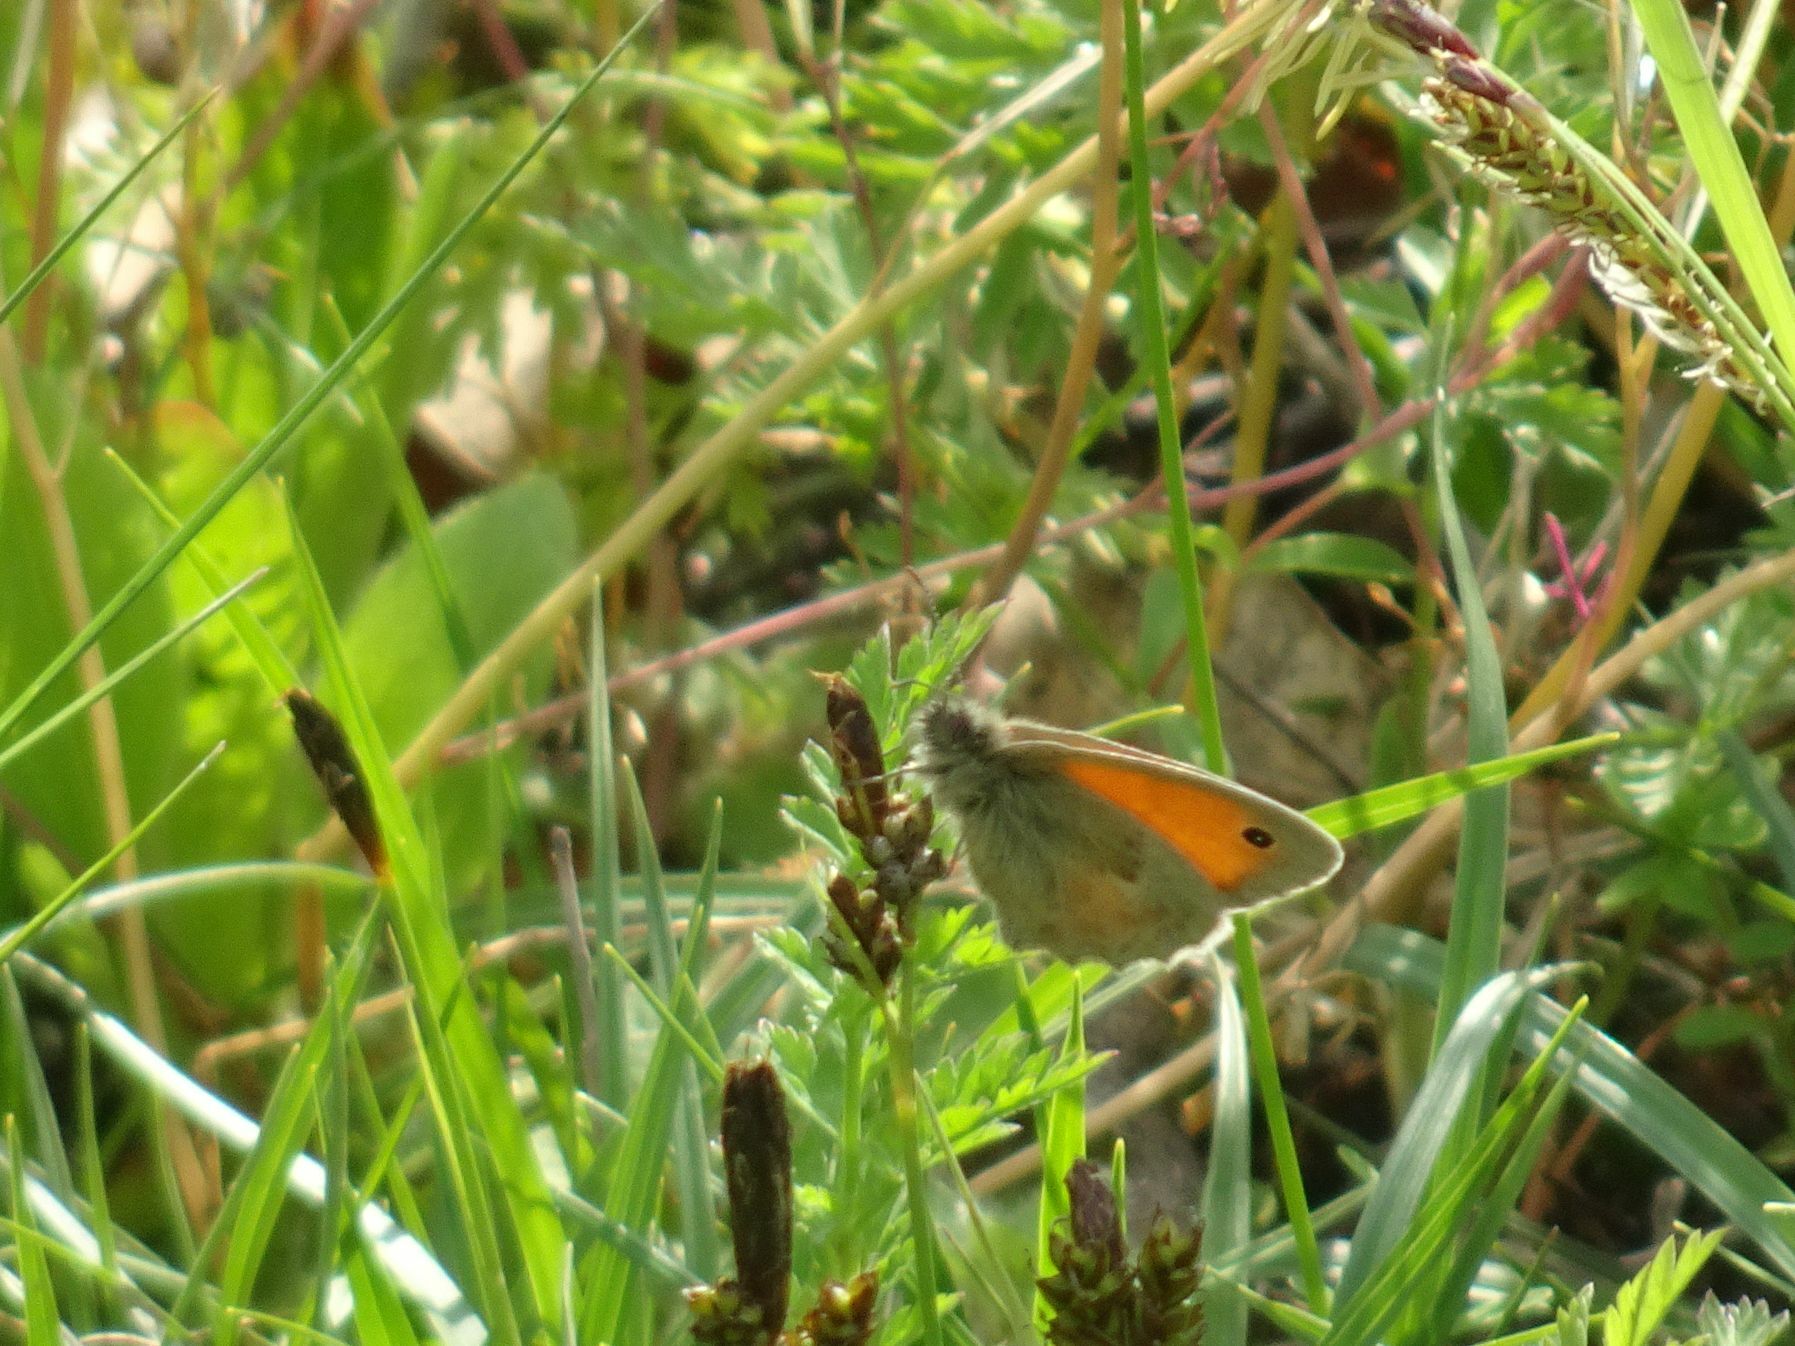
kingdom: Animalia
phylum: Arthropoda
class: Insecta
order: Lepidoptera
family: Nymphalidae
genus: Coenonympha
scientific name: Coenonympha pamphilus
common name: Small heath
